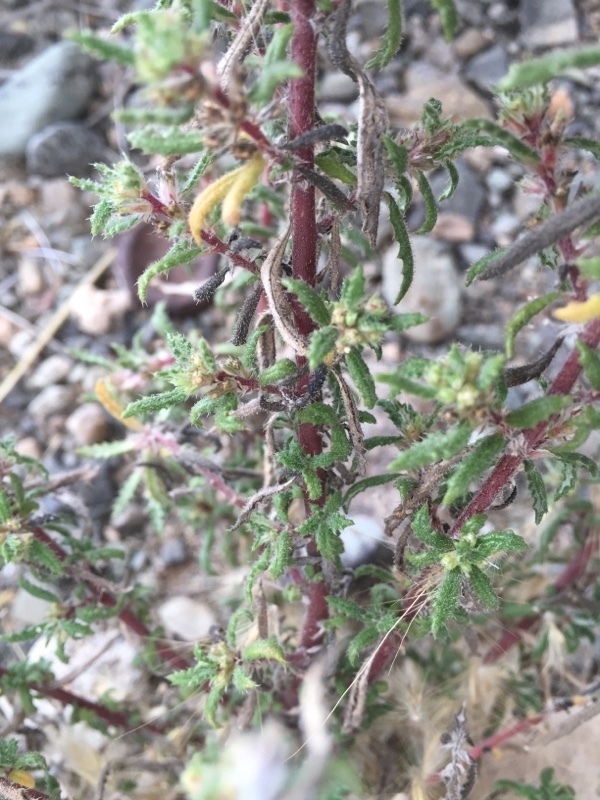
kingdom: Plantae
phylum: Tracheophyta
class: Magnoliopsida
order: Rosales
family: Urticaceae
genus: Forsskaolea
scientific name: Forsskaolea angustifolia
